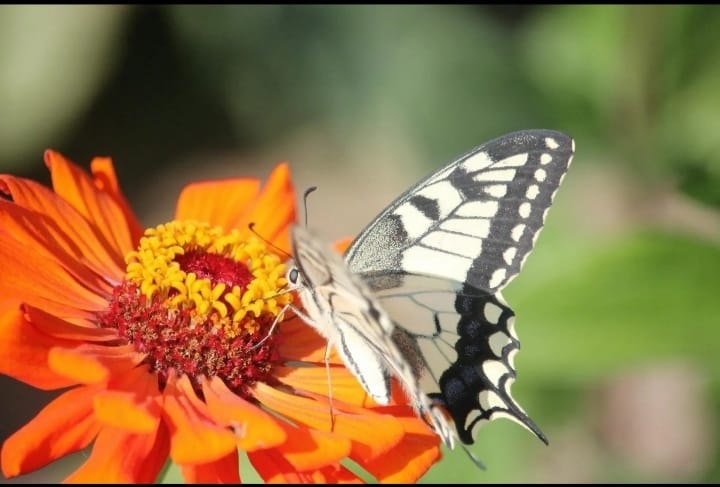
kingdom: Animalia
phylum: Arthropoda
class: Insecta
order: Lepidoptera
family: Papilionidae
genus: Papilio
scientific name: Papilio machaon
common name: Swallowtail
